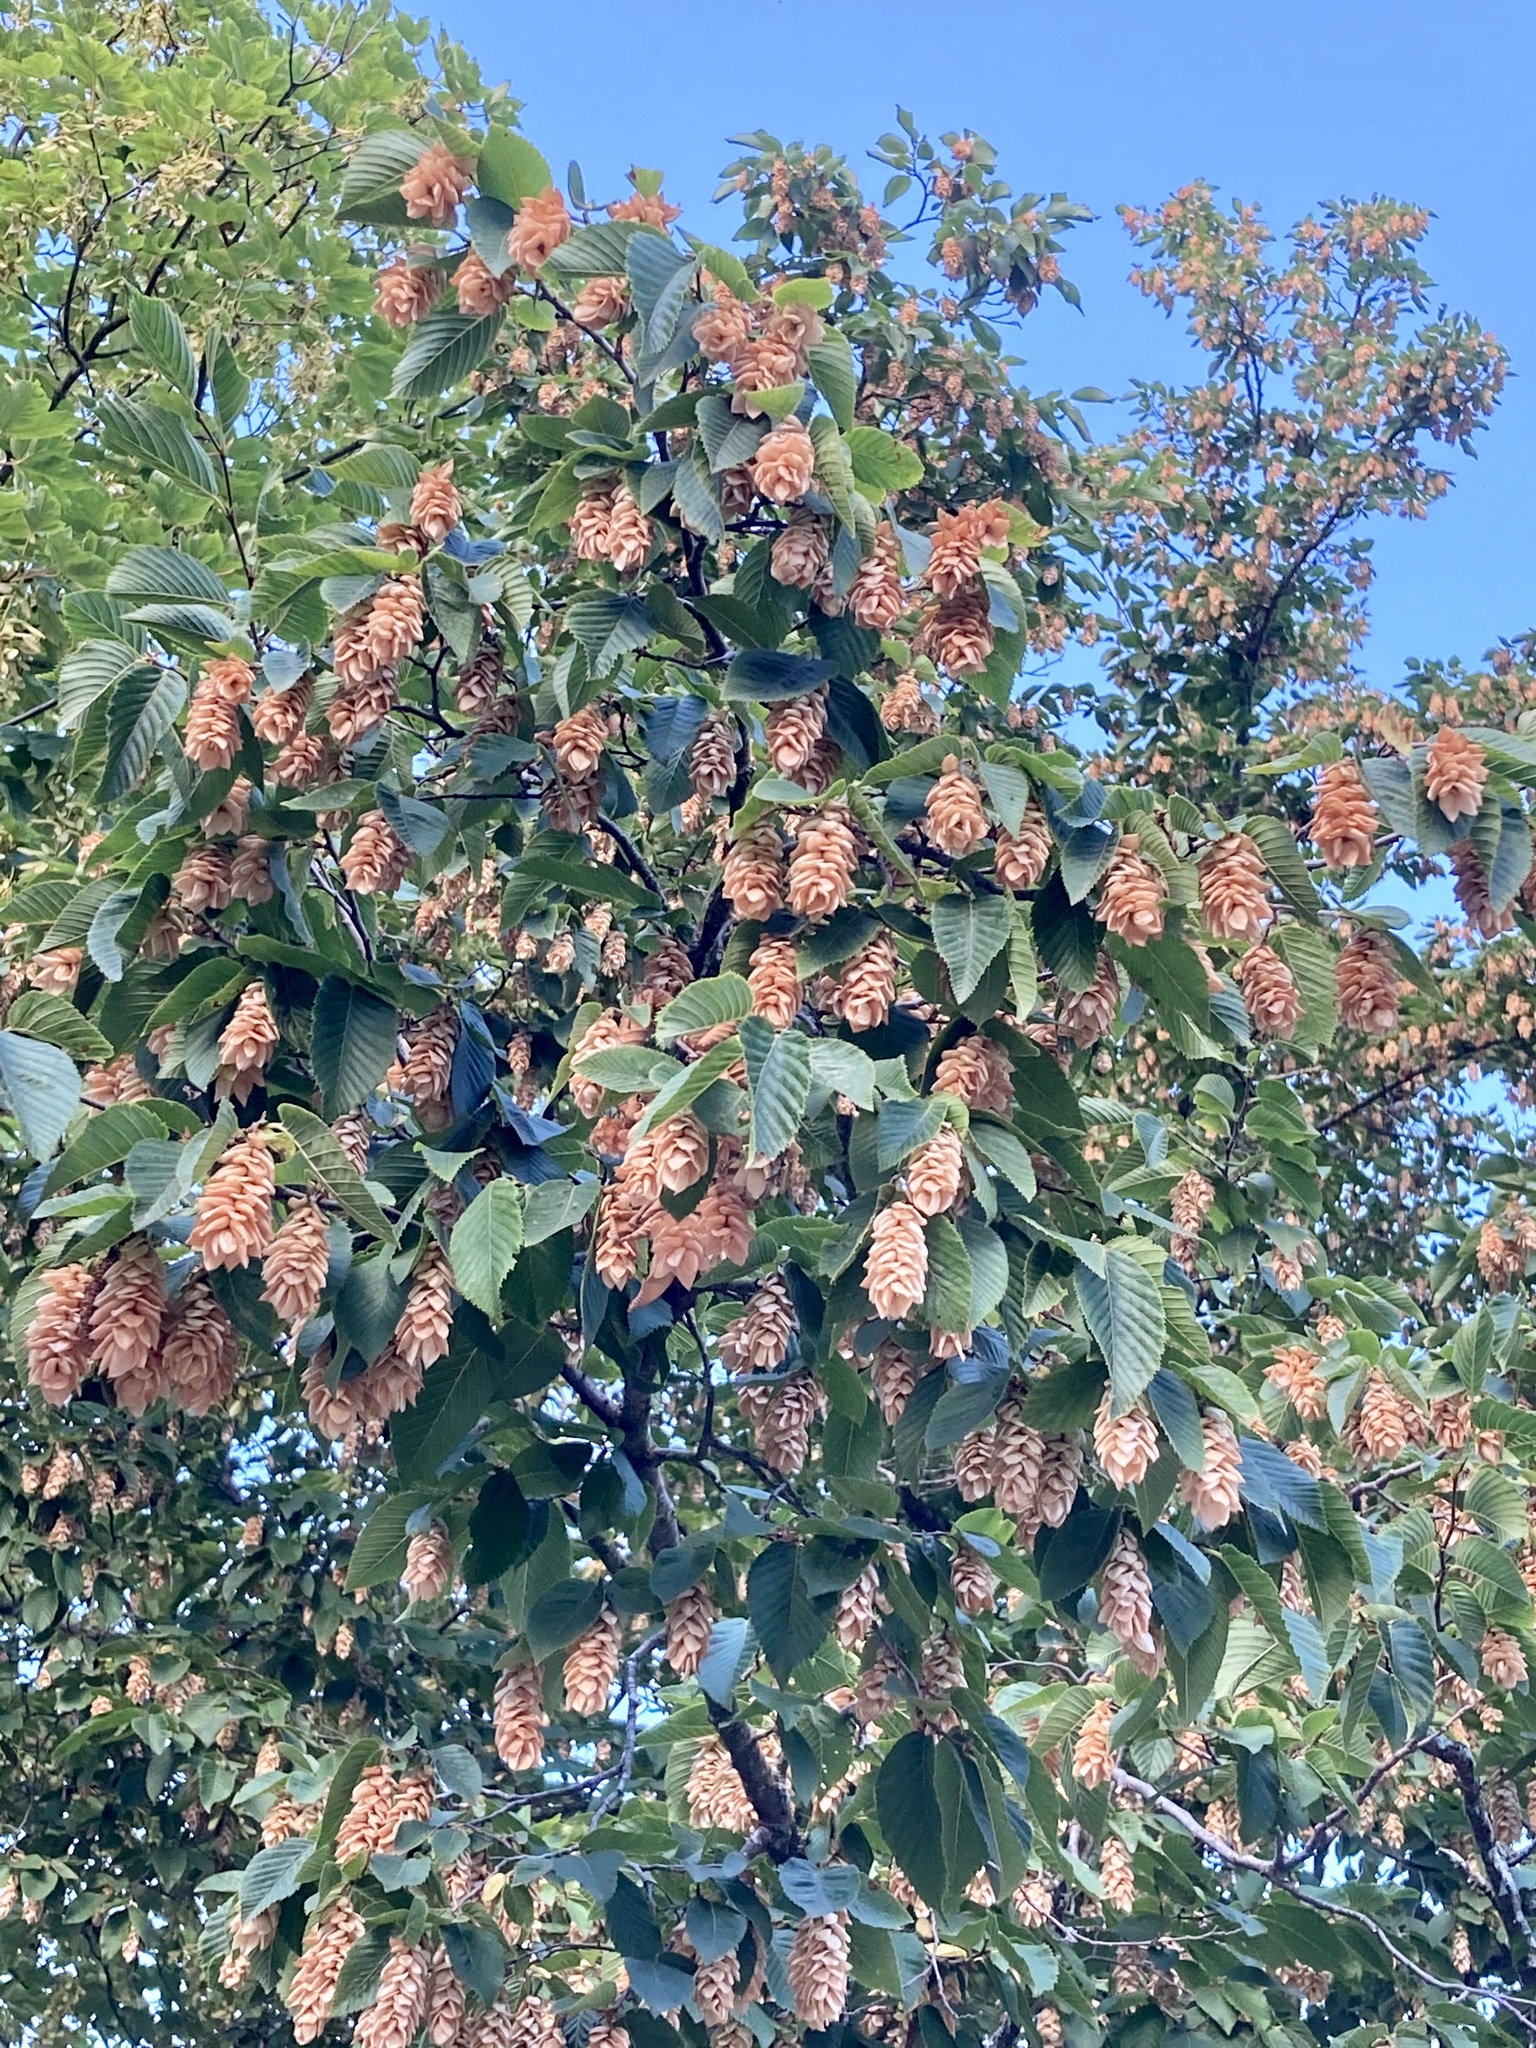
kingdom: Plantae
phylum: Tracheophyta
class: Magnoliopsida
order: Fagales
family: Betulaceae
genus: Ostrya
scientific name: Ostrya carpinifolia
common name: European hop-hornbeam
